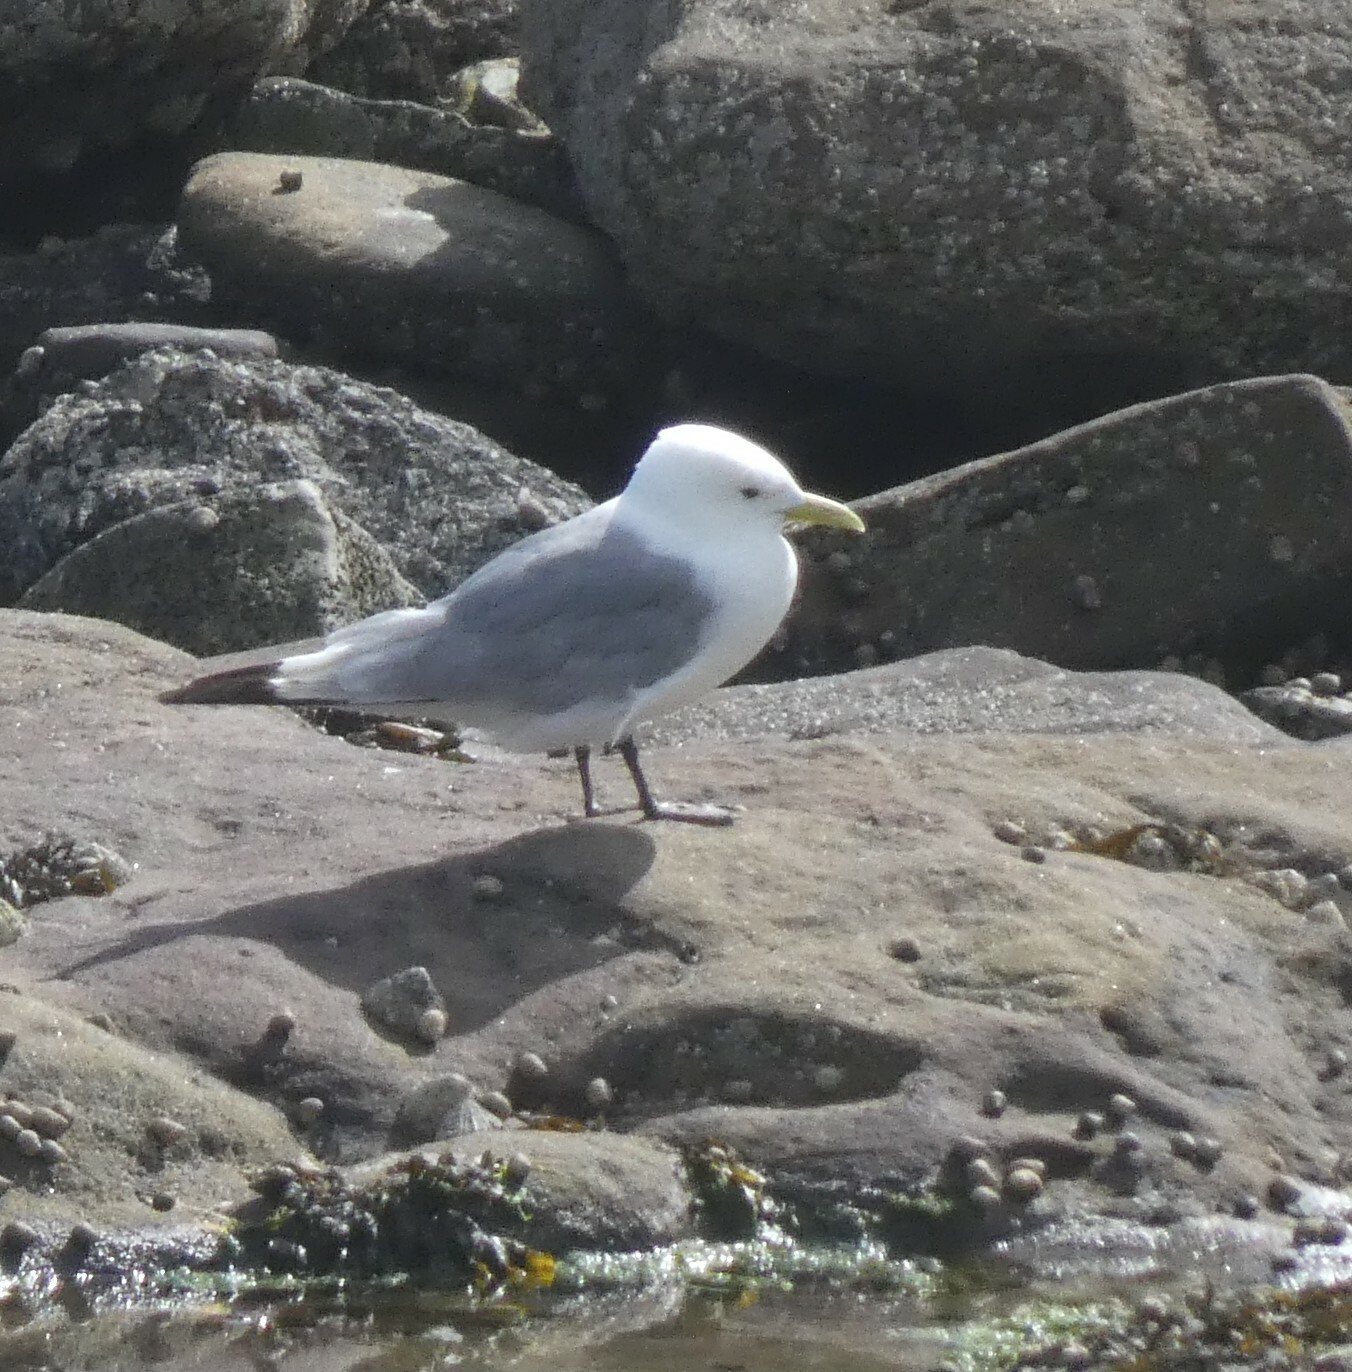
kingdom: Animalia
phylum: Chordata
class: Aves
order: Charadriiformes
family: Laridae
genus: Rissa
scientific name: Rissa tridactyla
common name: Black-legged kittiwake
